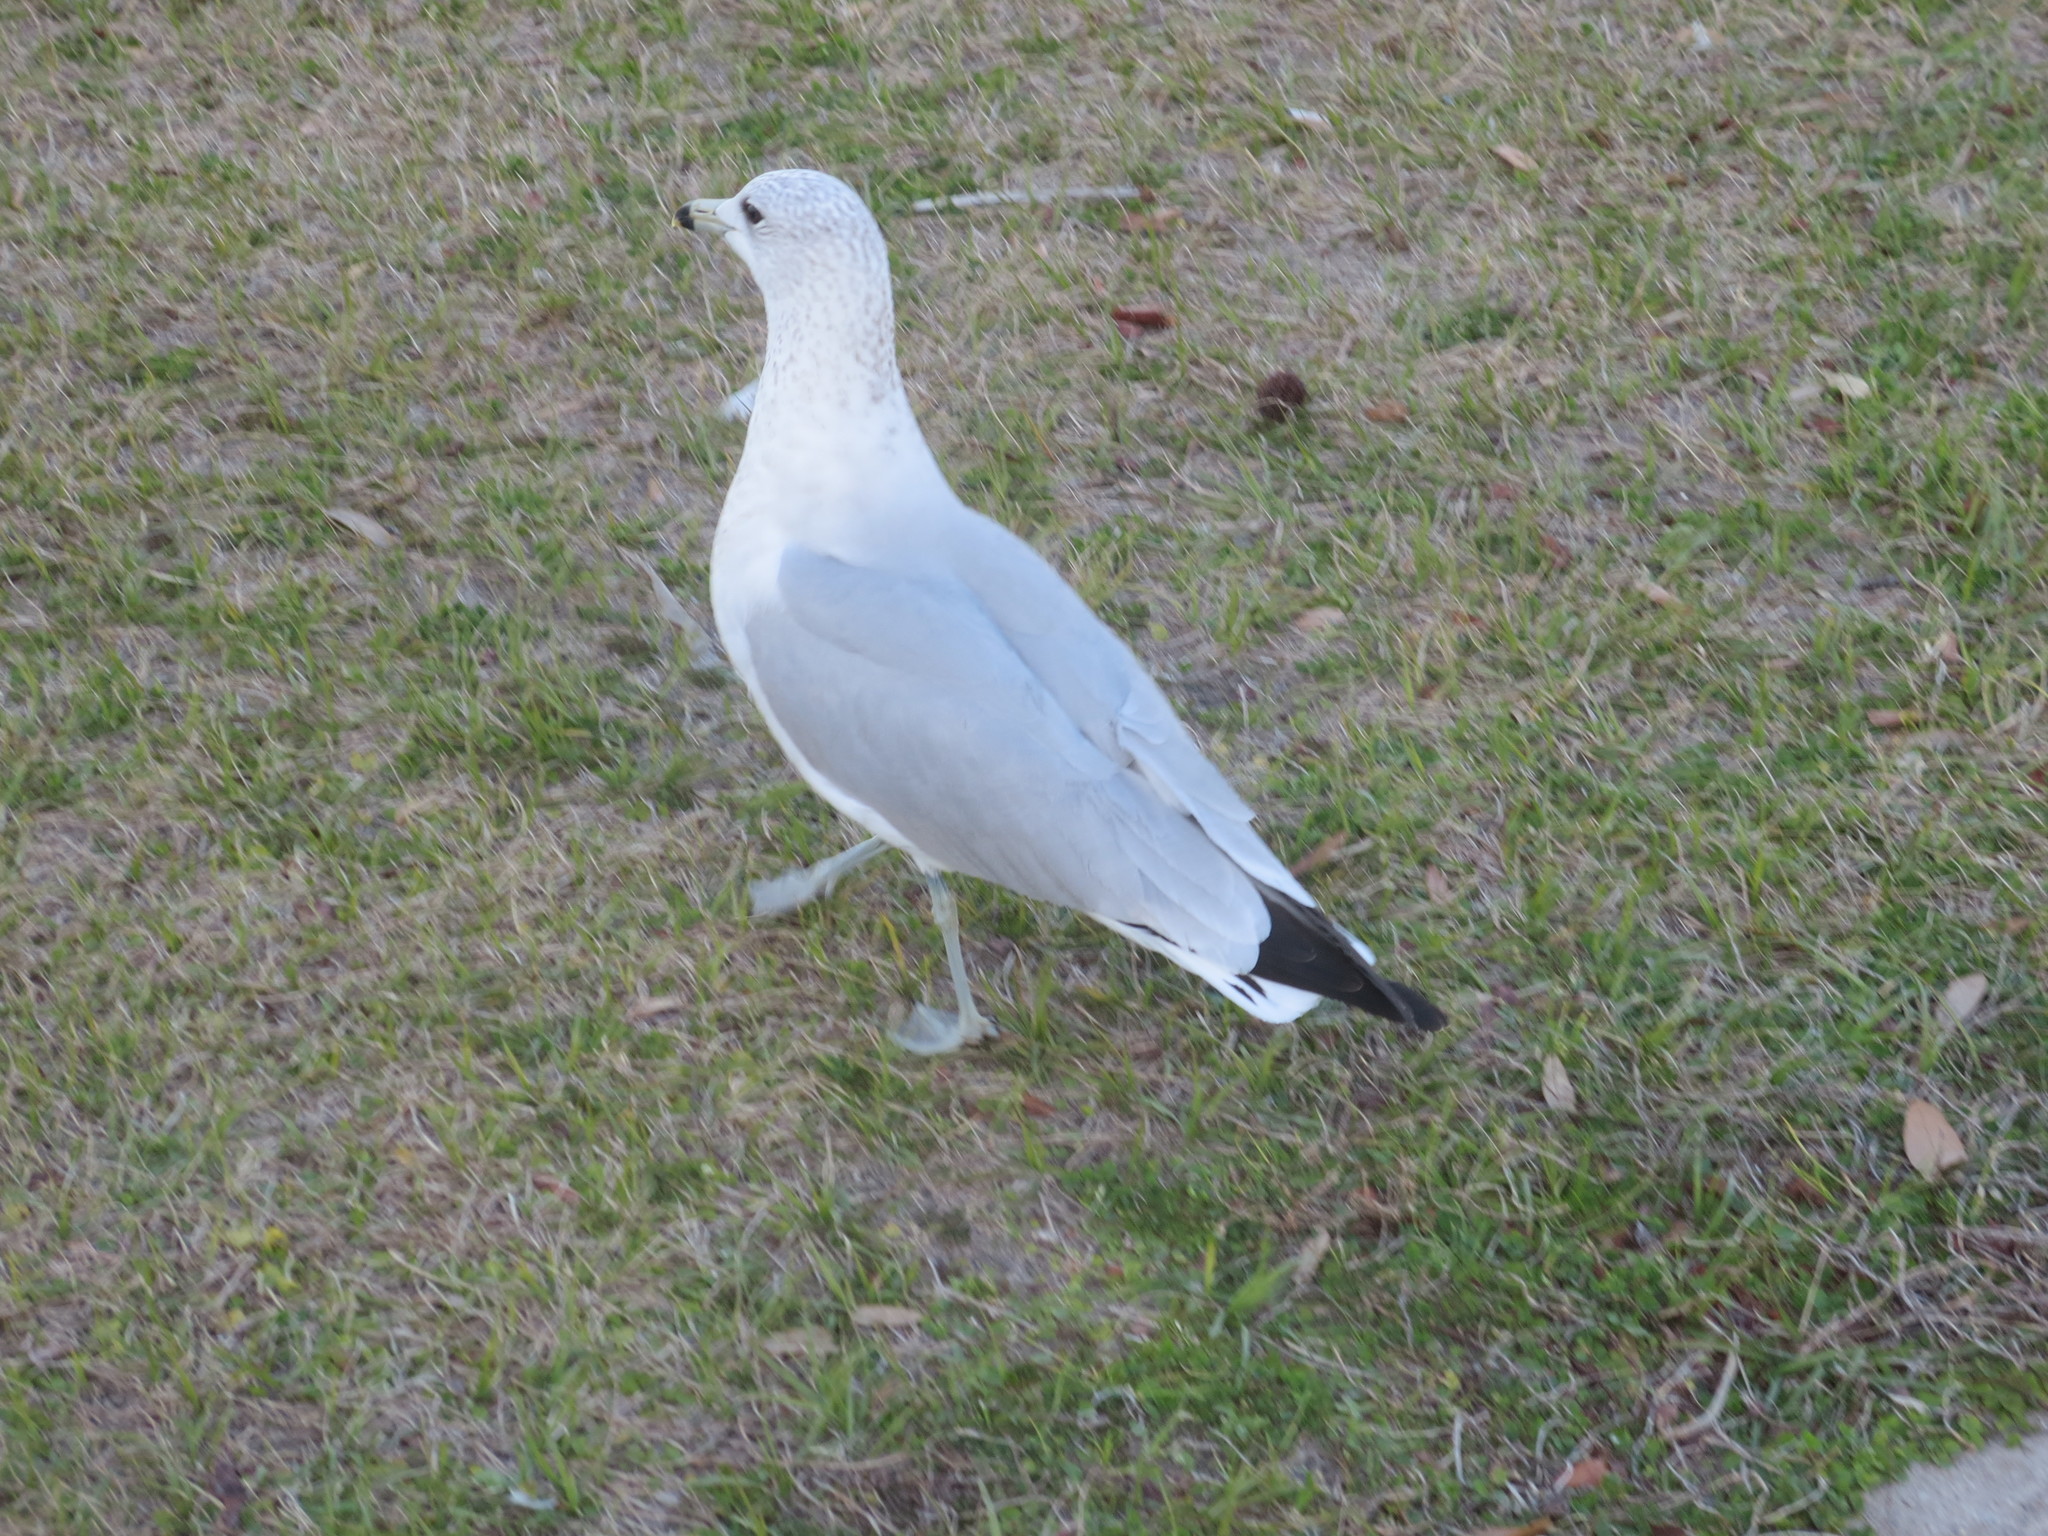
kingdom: Animalia
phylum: Chordata
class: Aves
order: Charadriiformes
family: Laridae
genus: Larus
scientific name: Larus delawarensis
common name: Ring-billed gull
